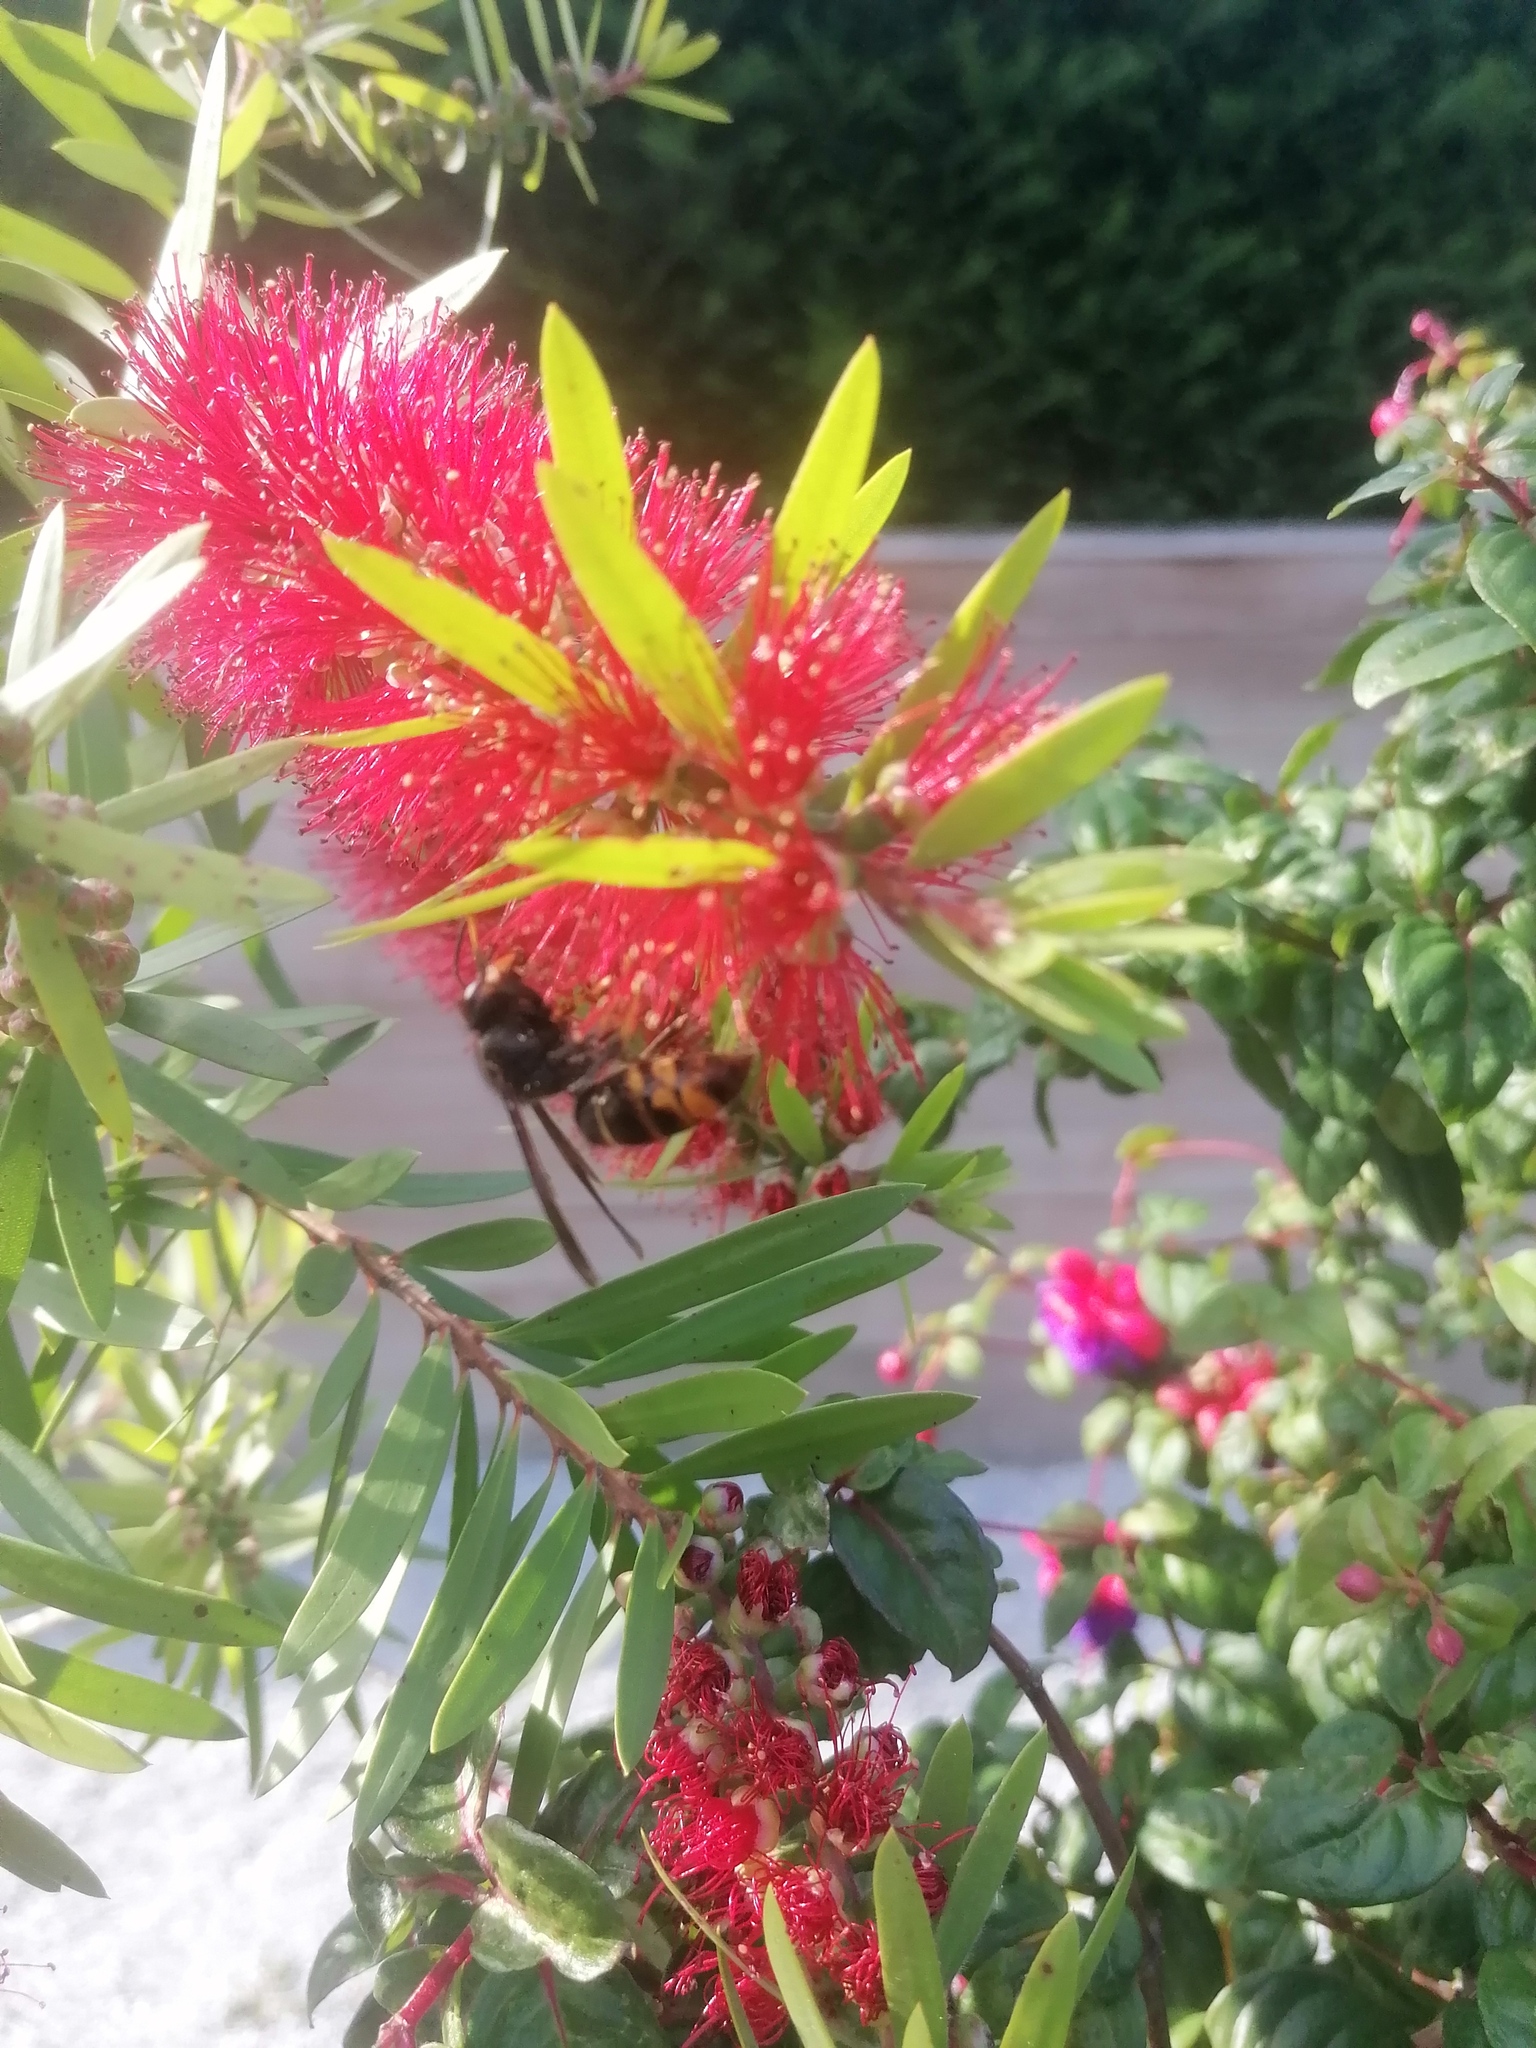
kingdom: Animalia
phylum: Arthropoda
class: Insecta
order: Hymenoptera
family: Vespidae
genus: Vespa
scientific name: Vespa velutina
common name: Asian hornet
